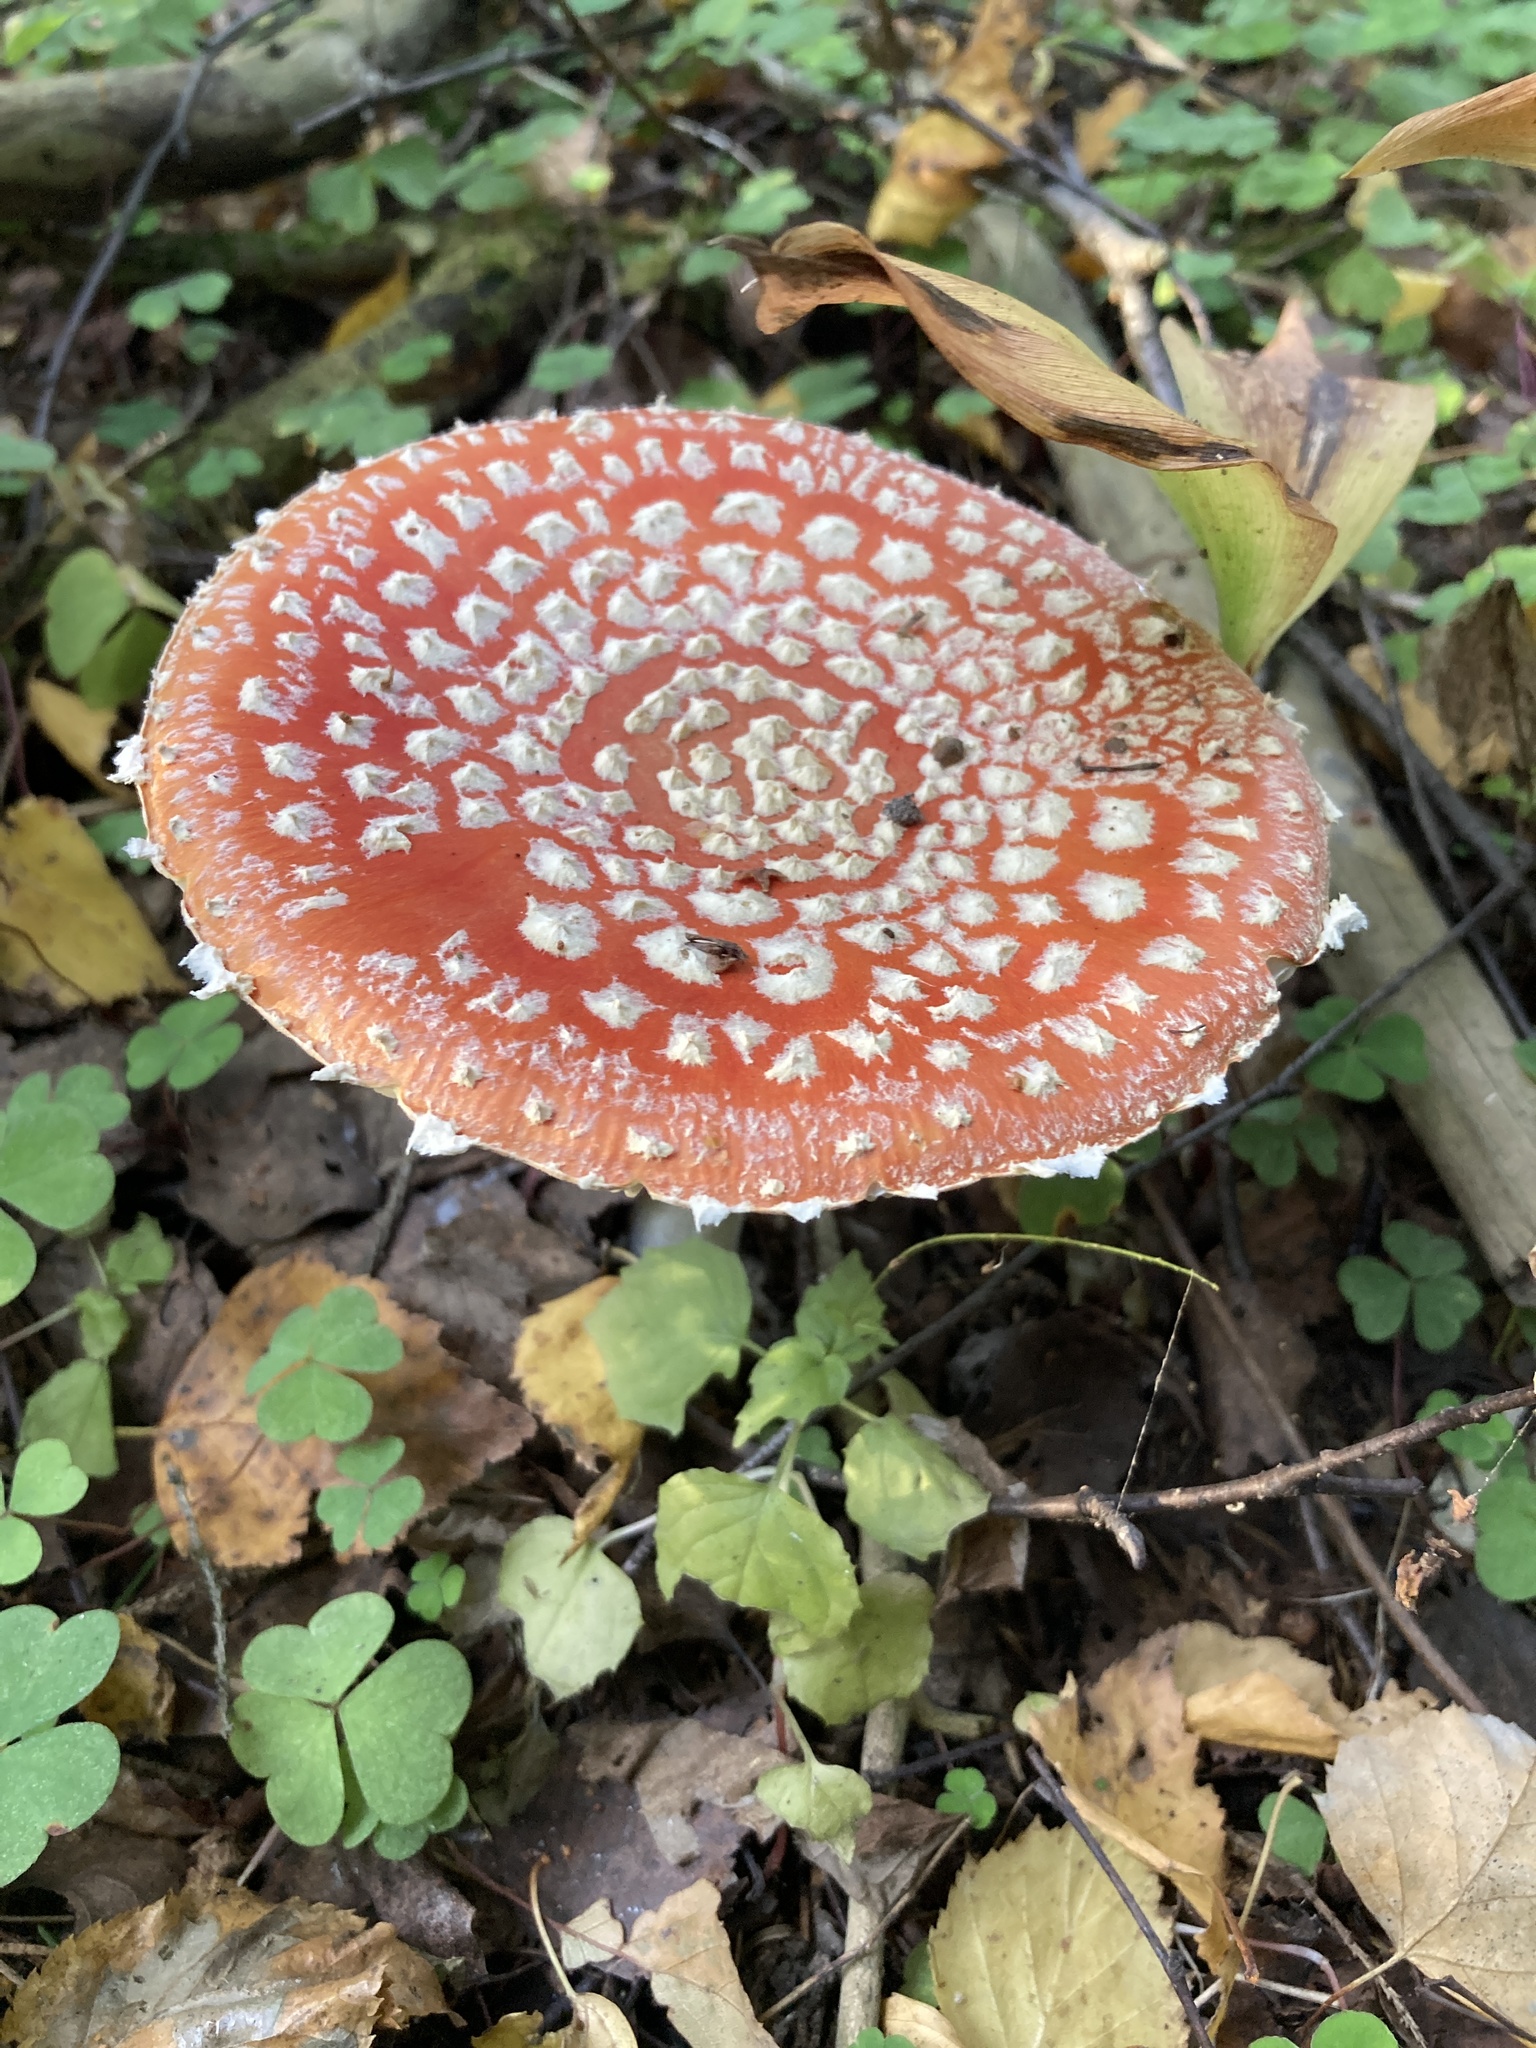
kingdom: Fungi
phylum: Basidiomycota
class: Agaricomycetes
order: Agaricales
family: Amanitaceae
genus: Amanita
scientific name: Amanita muscaria
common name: Fly agaric
